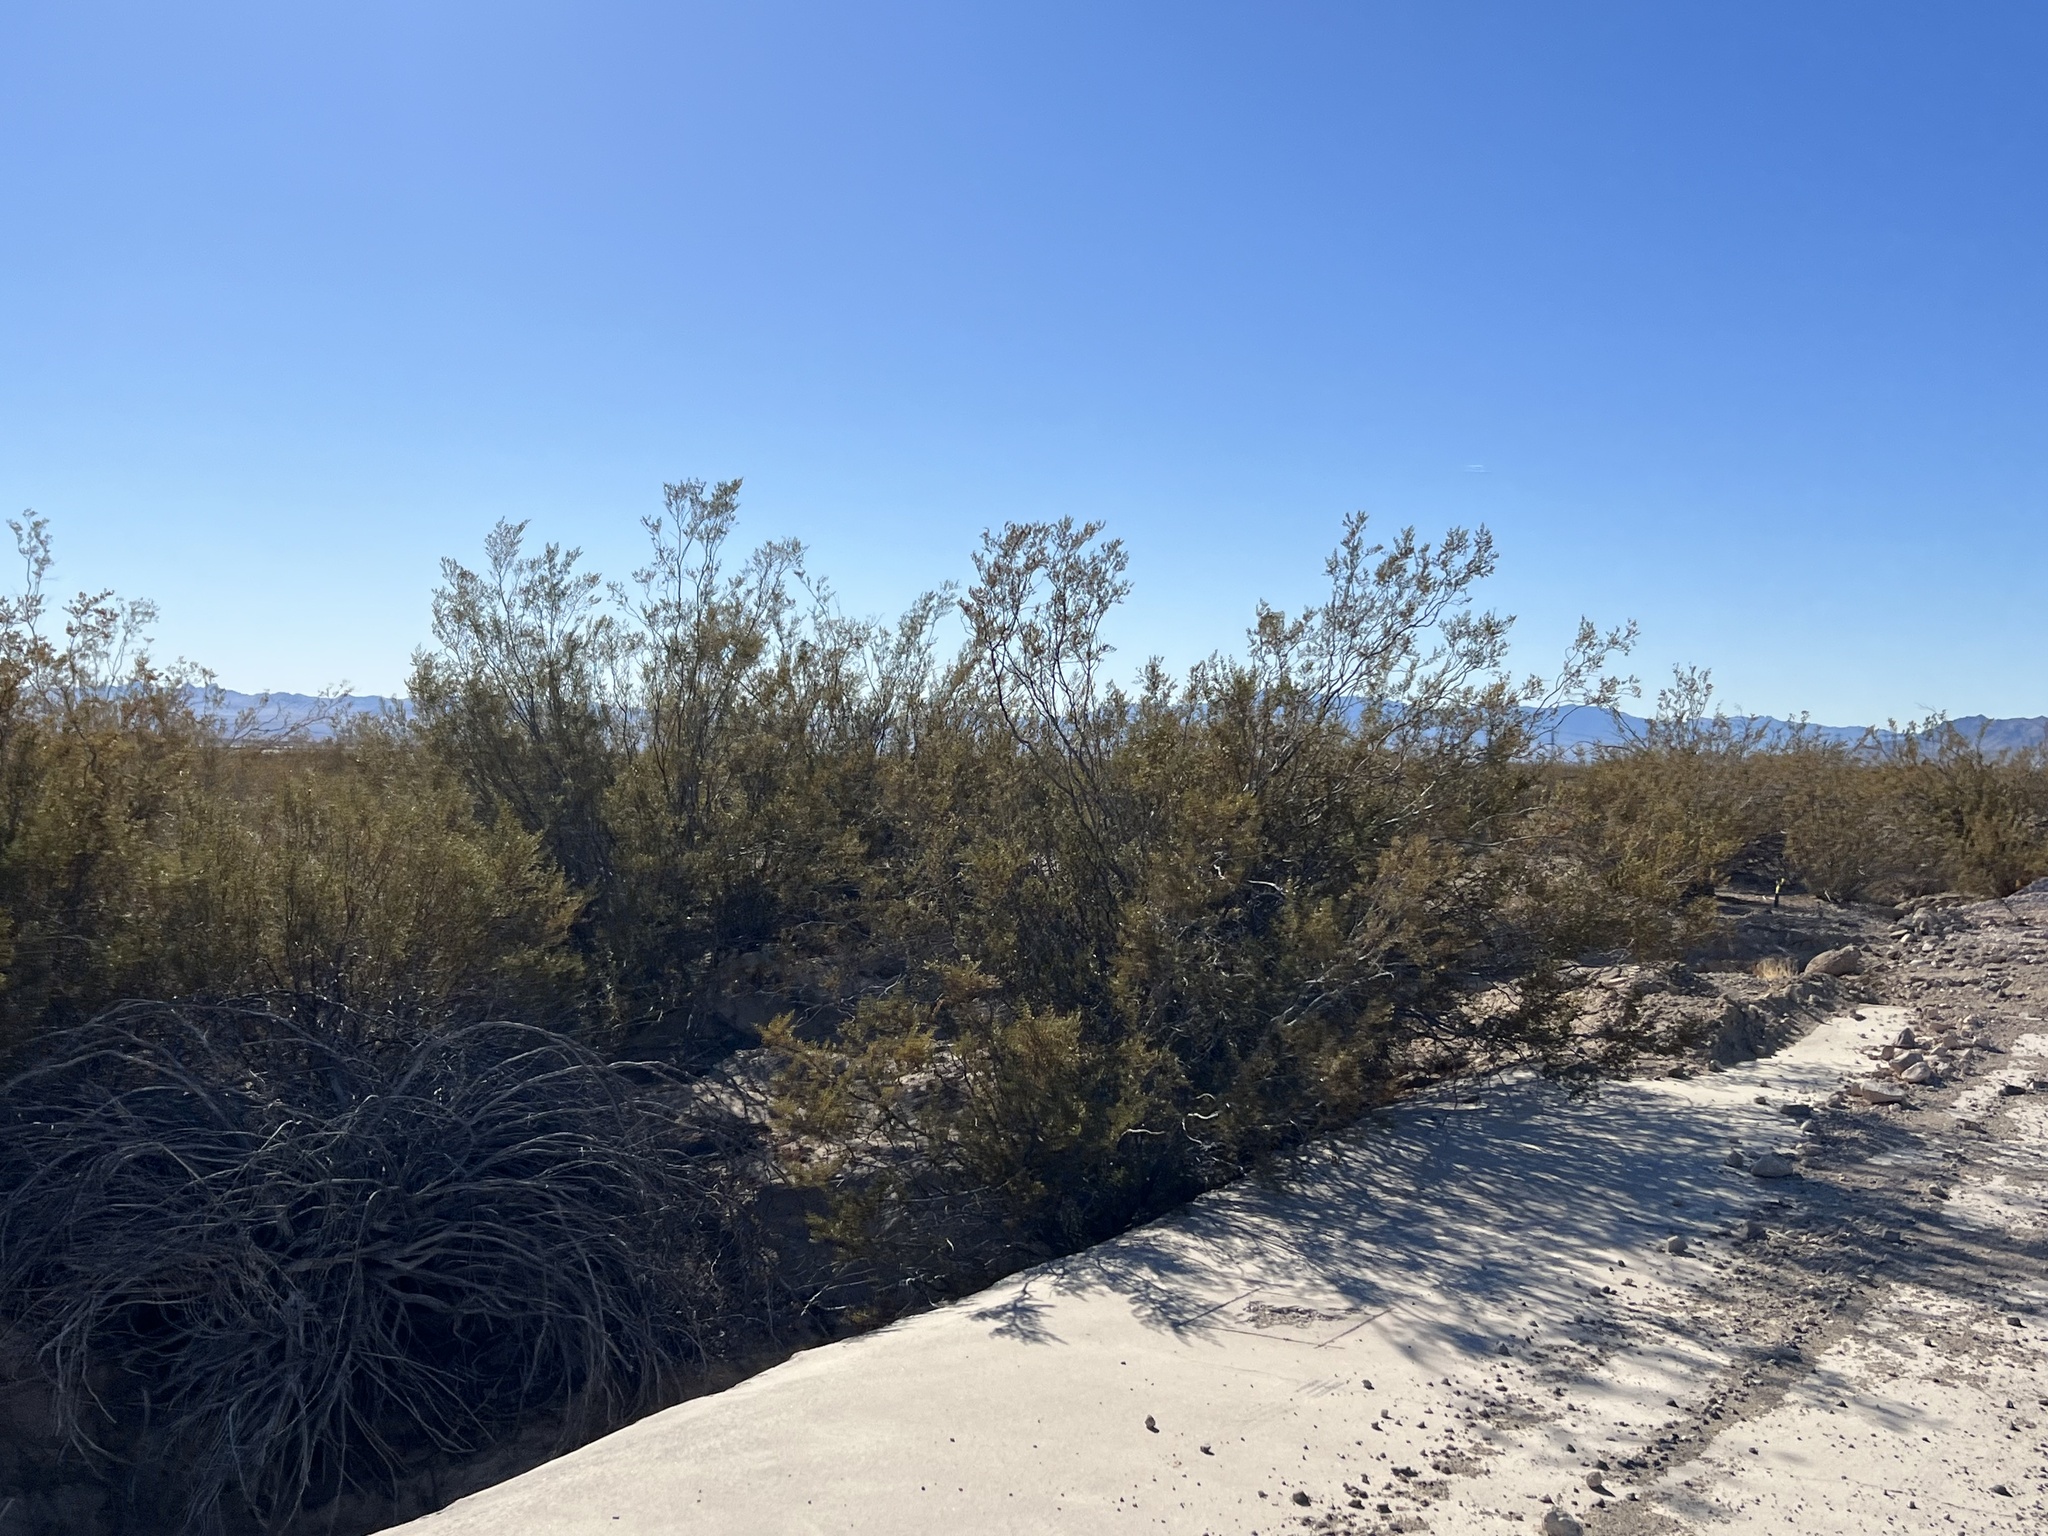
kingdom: Plantae
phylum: Tracheophyta
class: Magnoliopsida
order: Zygophyllales
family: Zygophyllaceae
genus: Larrea
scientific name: Larrea tridentata
